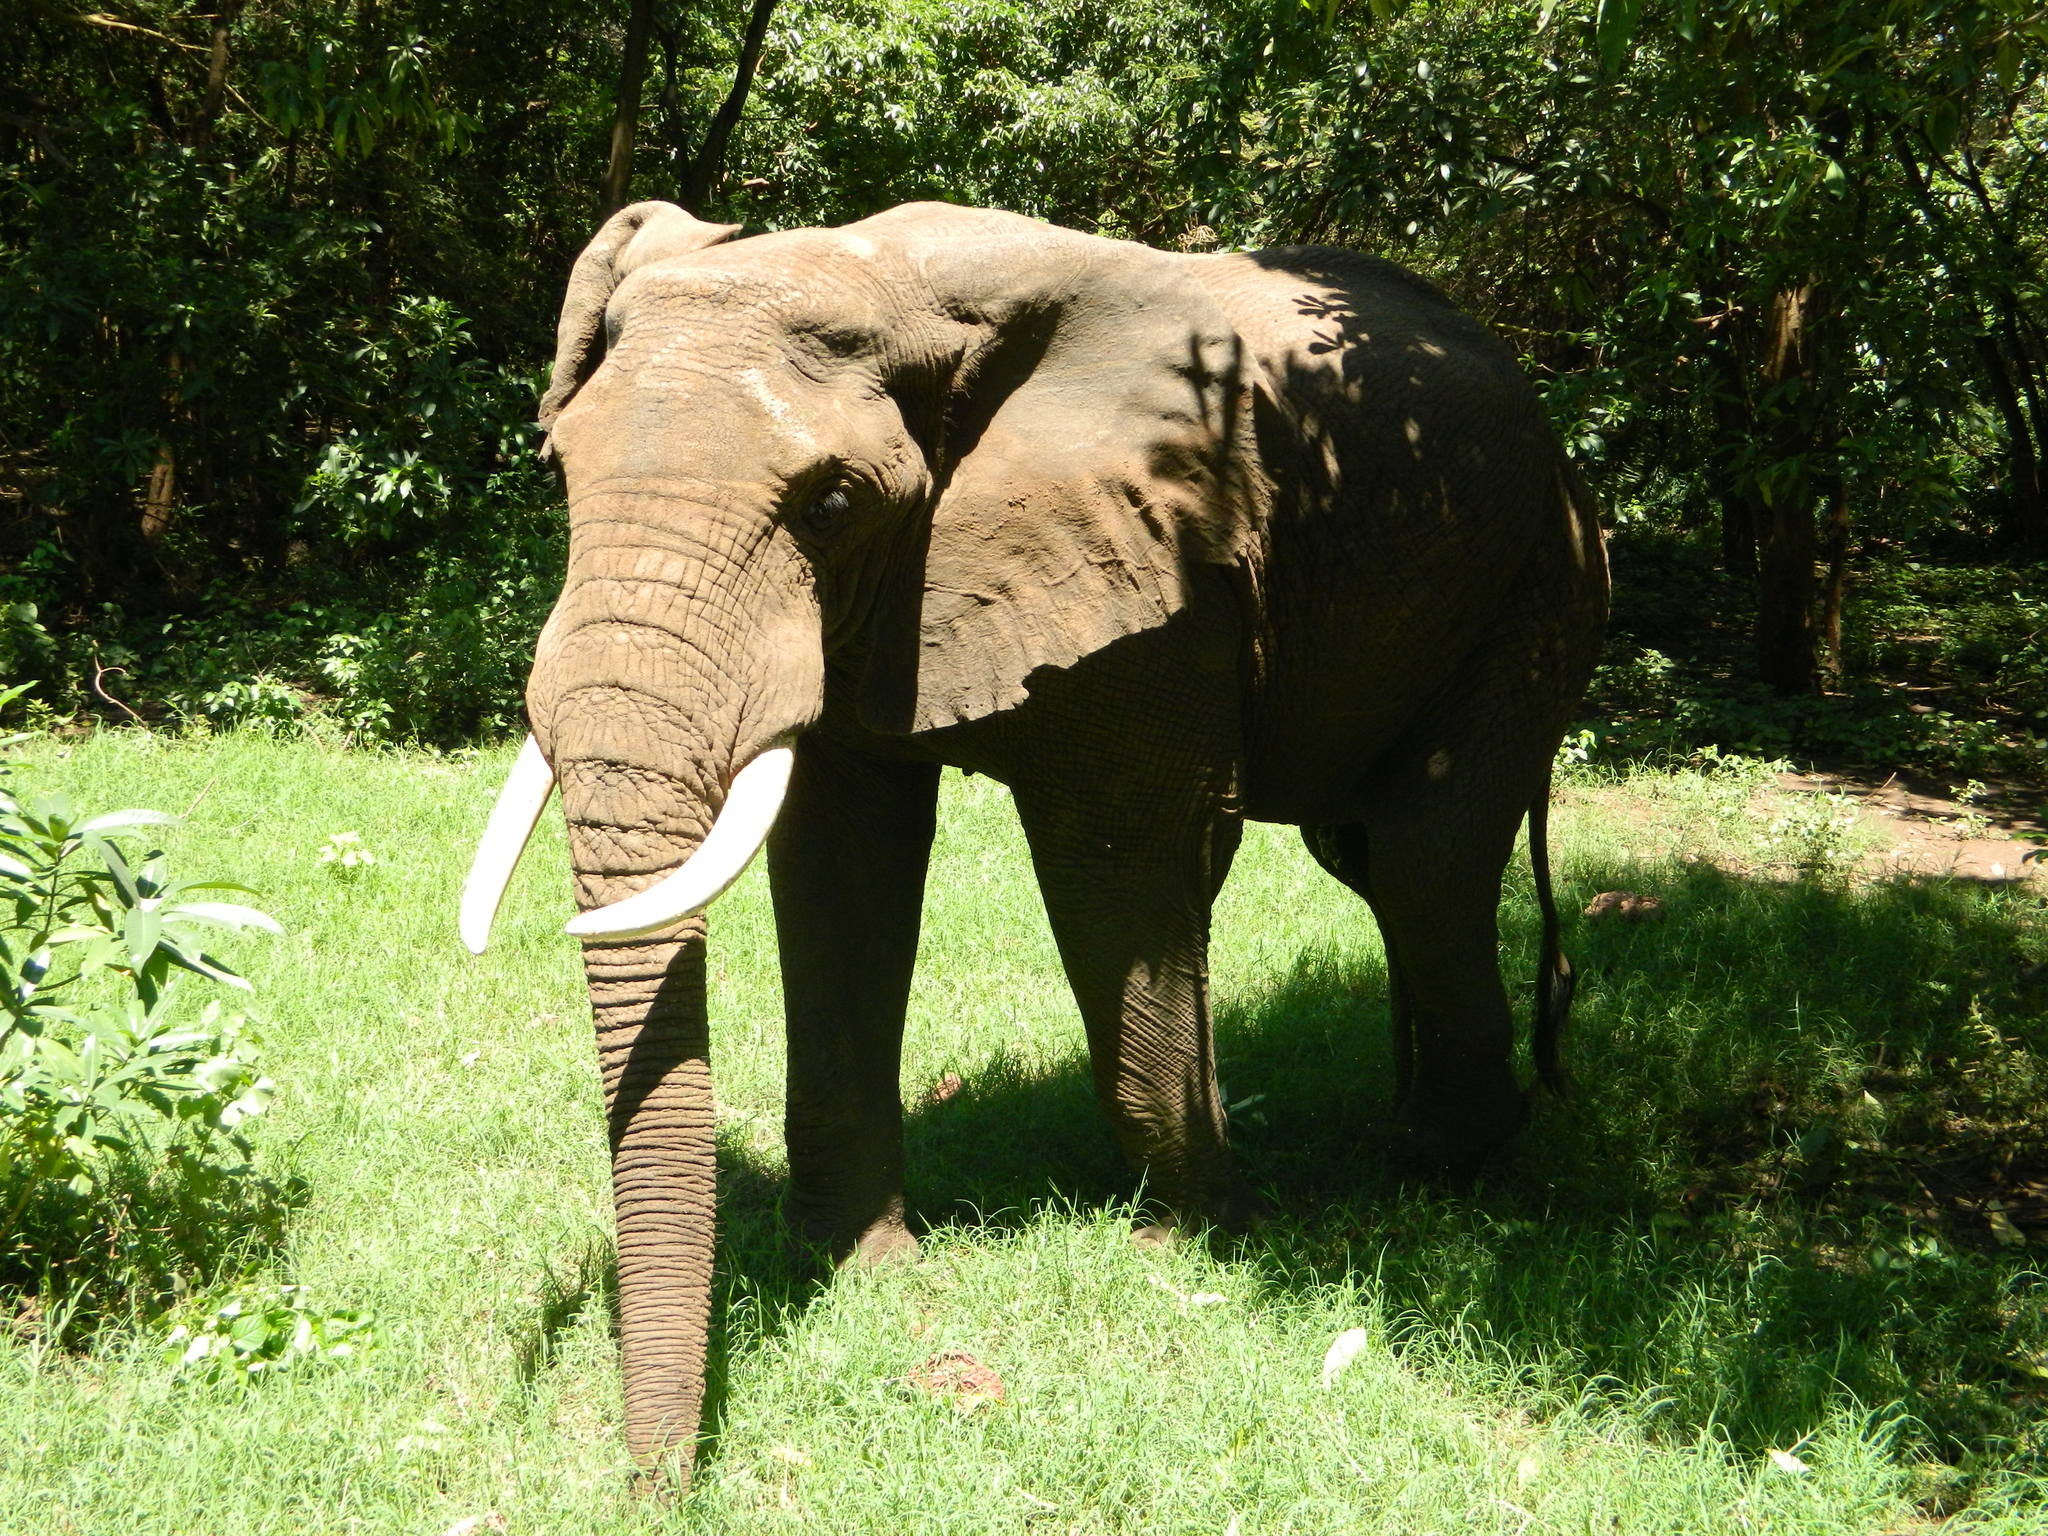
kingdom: Animalia
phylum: Chordata
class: Mammalia
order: Proboscidea
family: Elephantidae
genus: Loxodonta
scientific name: Loxodonta africana
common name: African elephant
